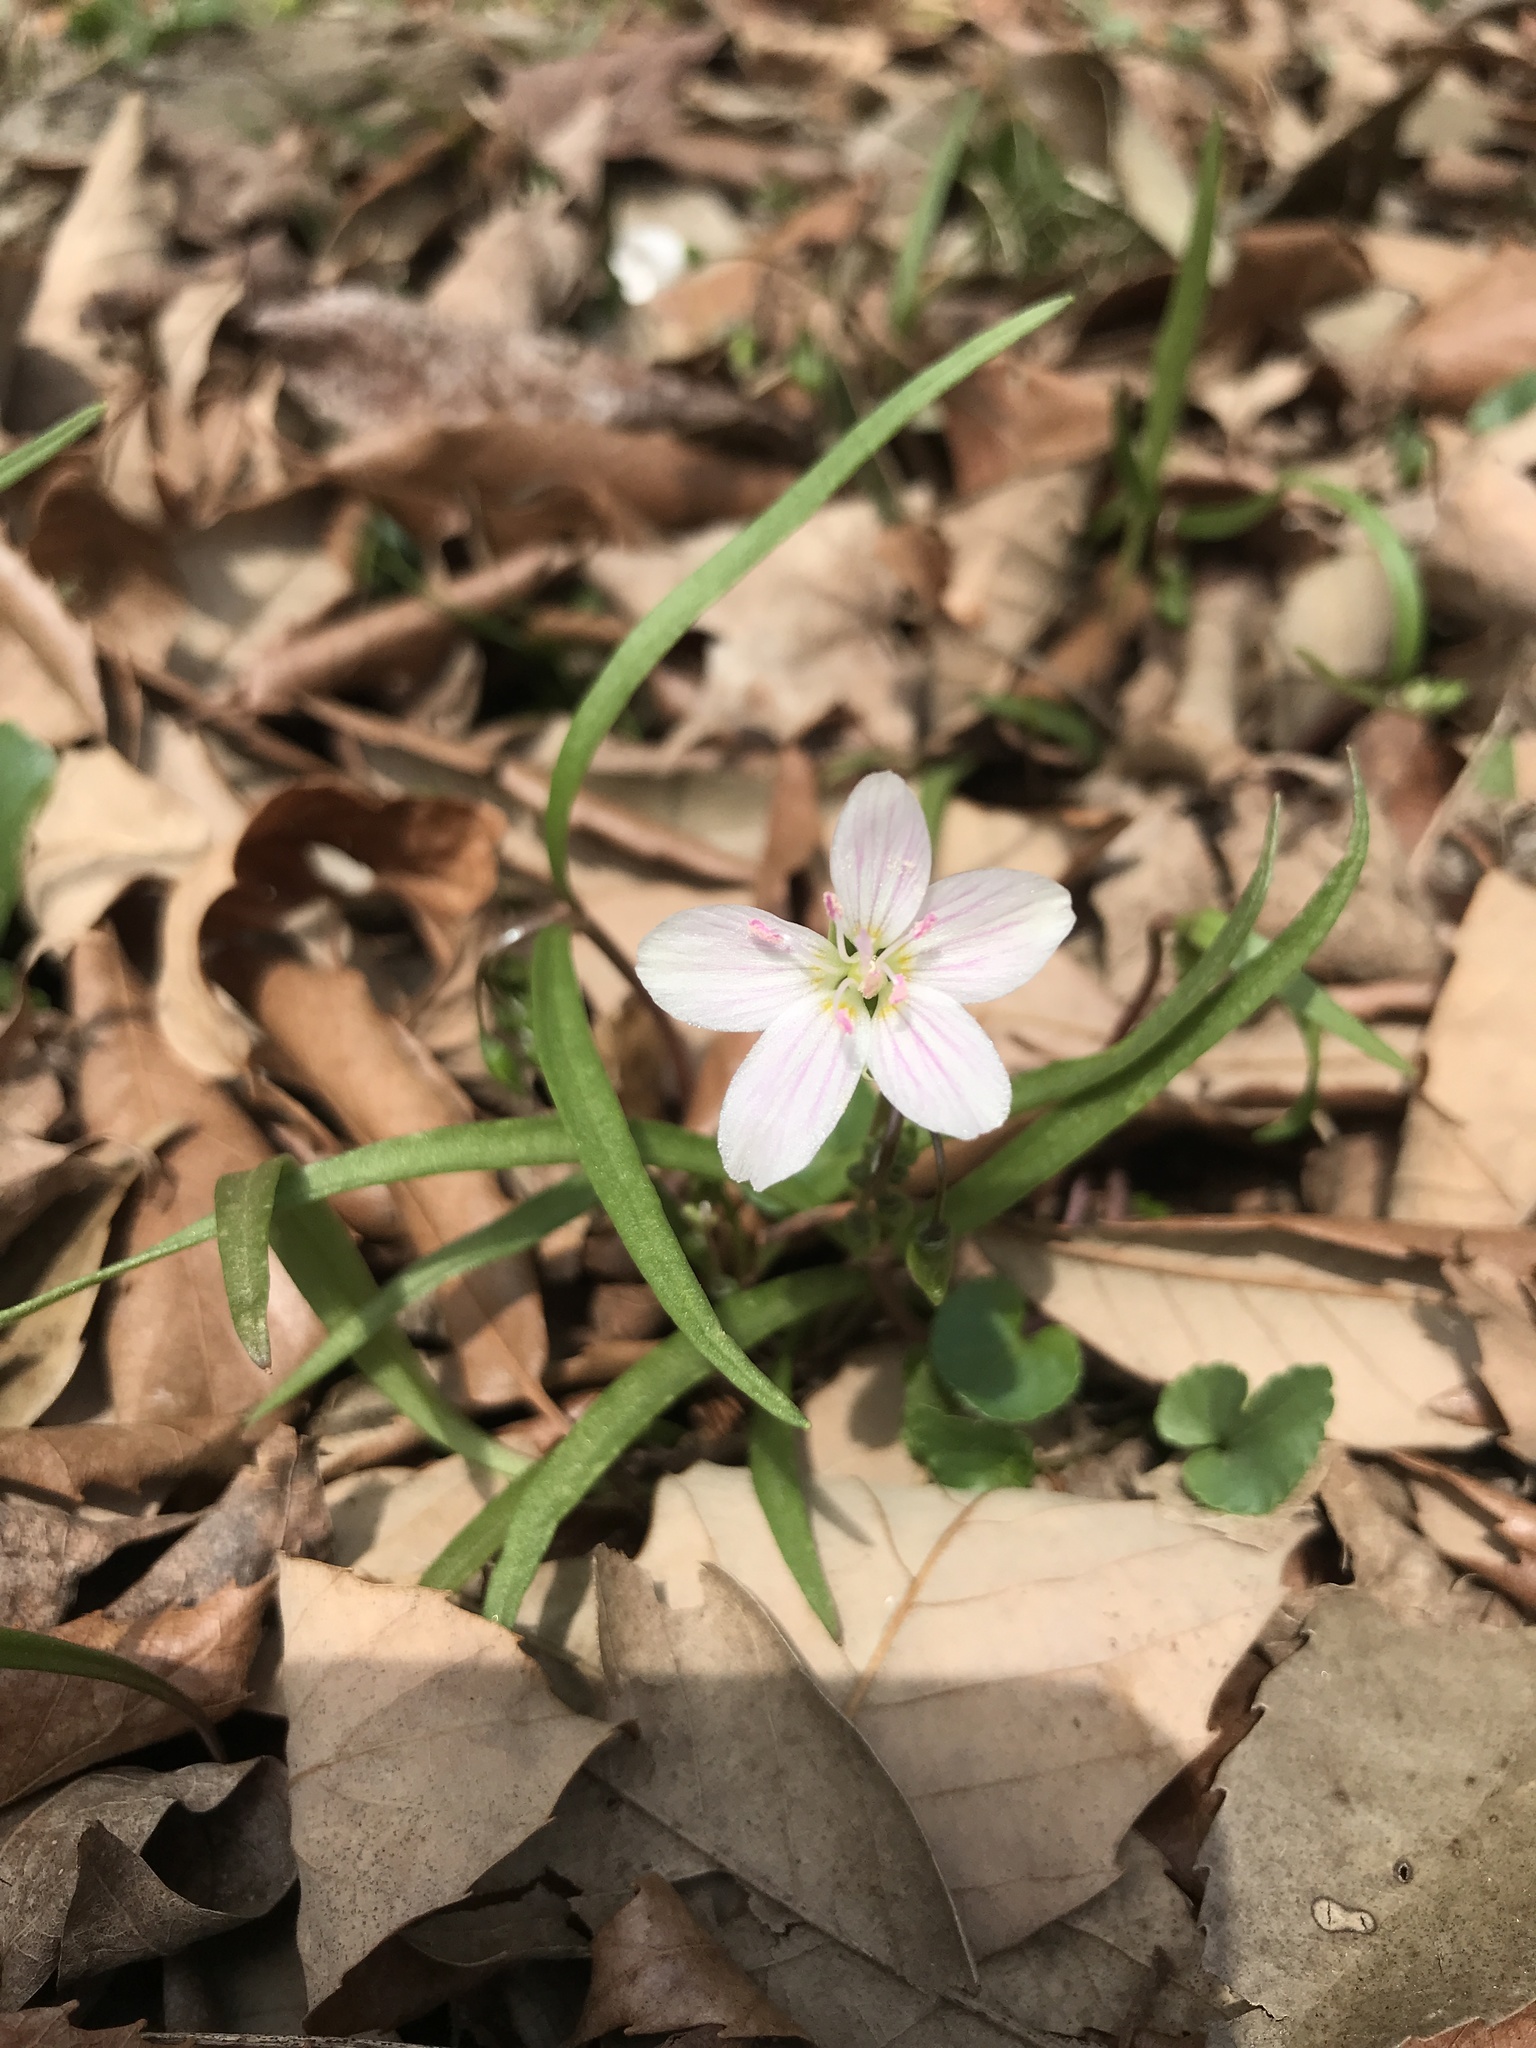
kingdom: Plantae
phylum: Tracheophyta
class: Magnoliopsida
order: Caryophyllales
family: Montiaceae
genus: Claytonia
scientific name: Claytonia virginica
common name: Virginia springbeauty
